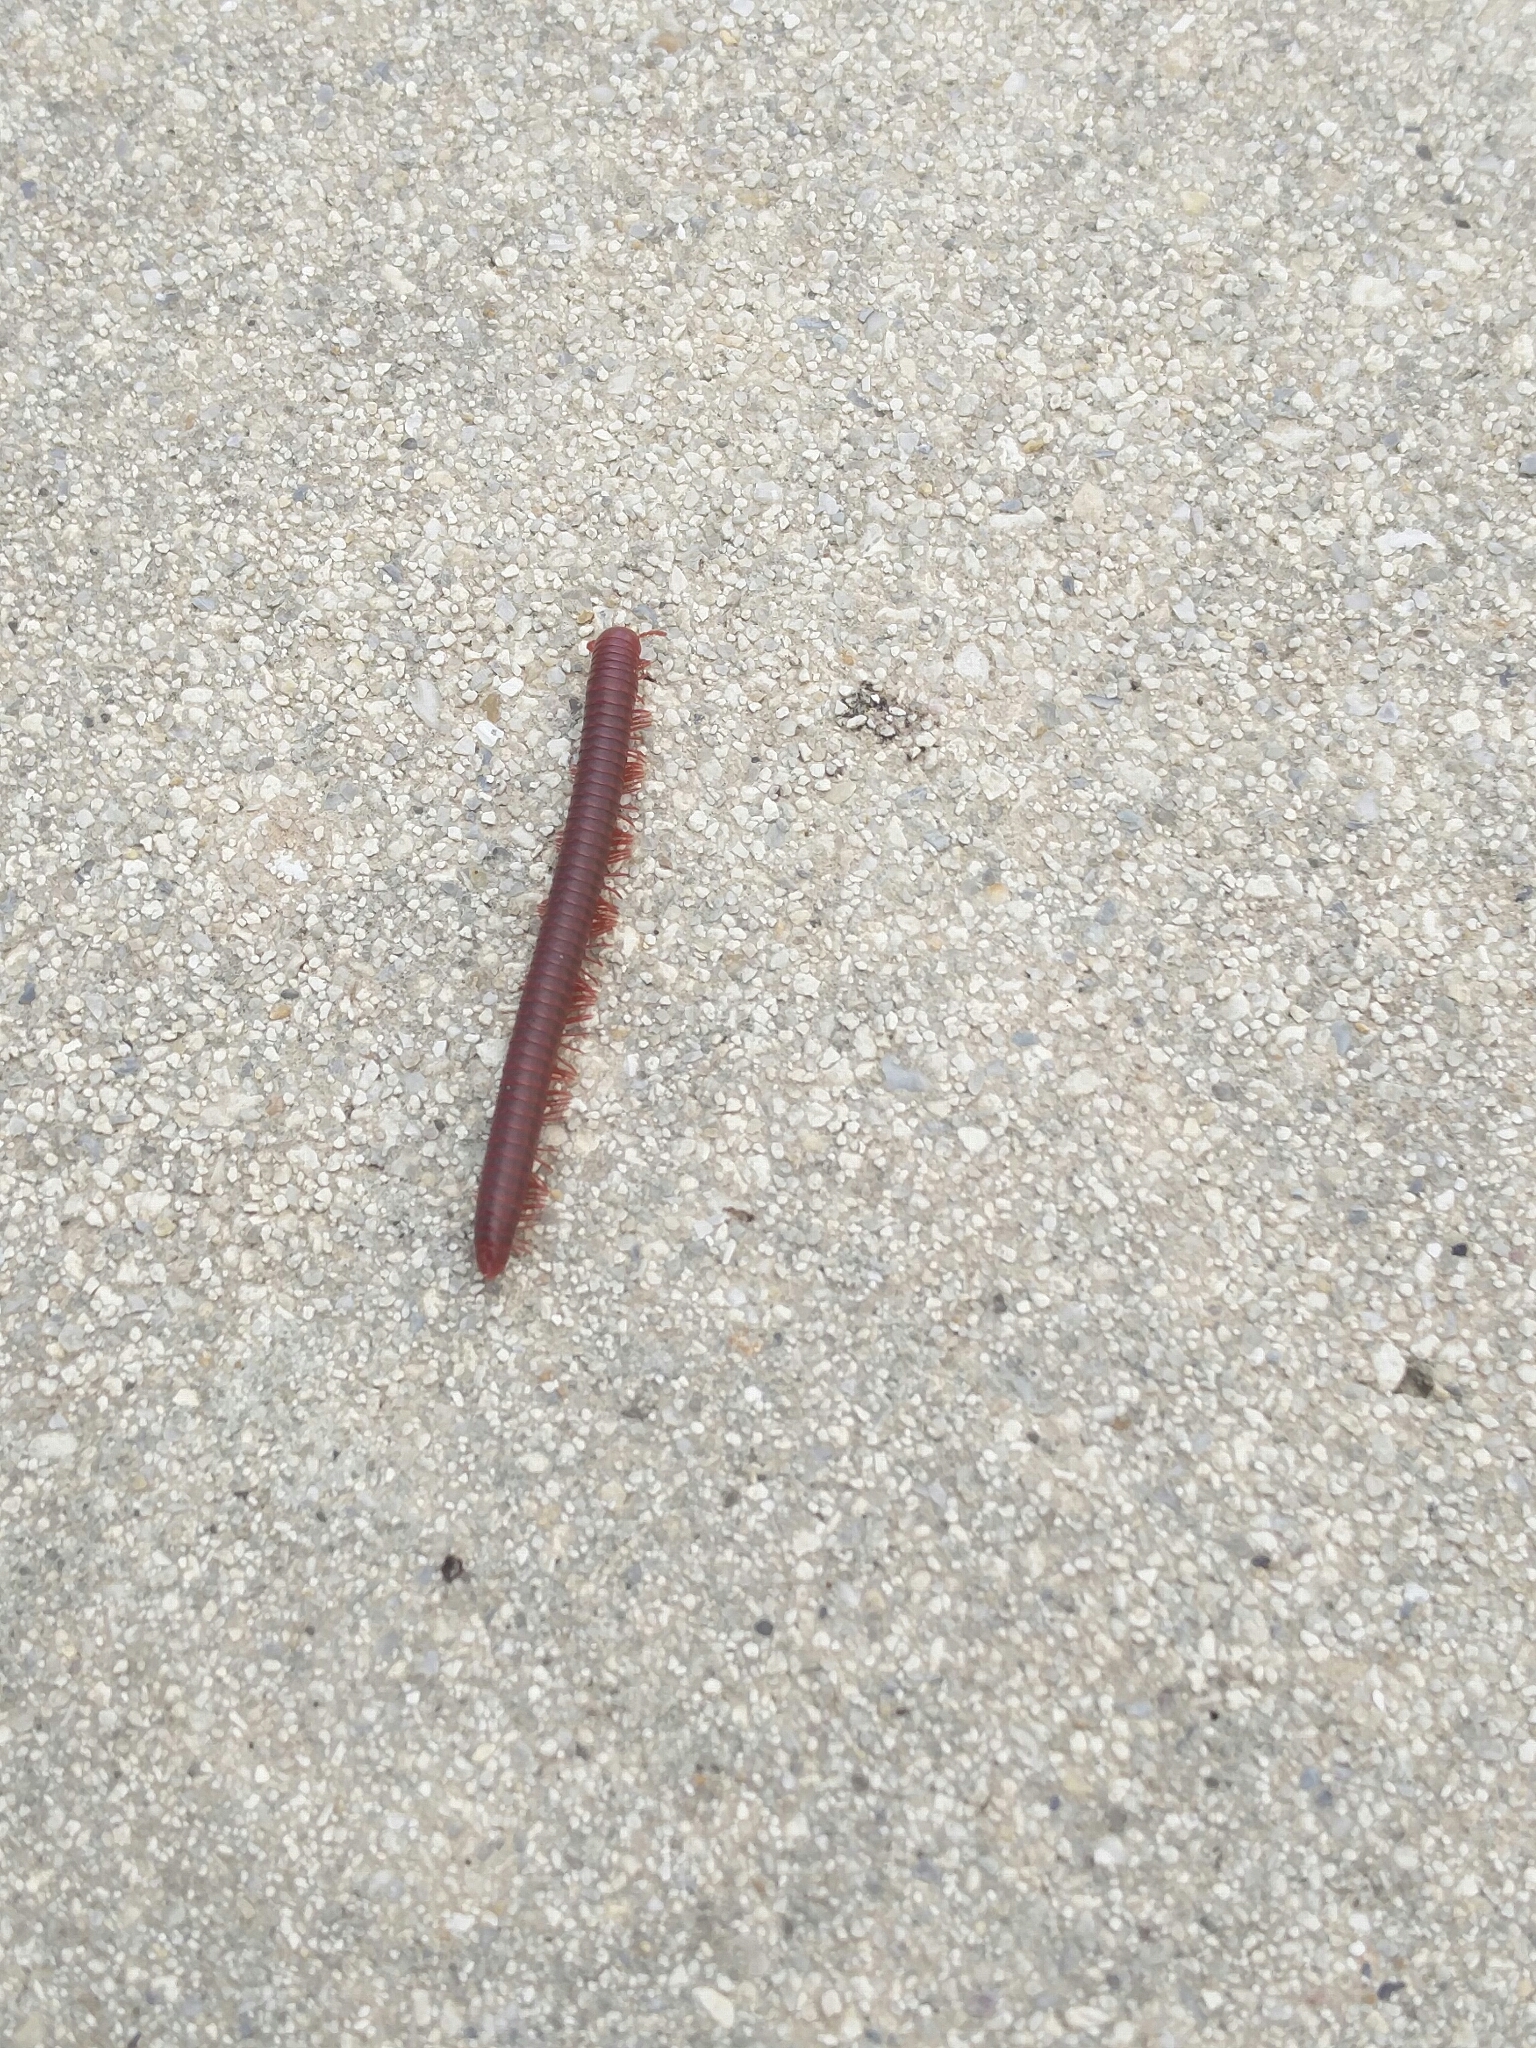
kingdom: Animalia
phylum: Arthropoda
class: Diplopoda
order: Spirobolida
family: Pachybolidae
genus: Trigoniulus
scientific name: Trigoniulus corallinus
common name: Millipede
